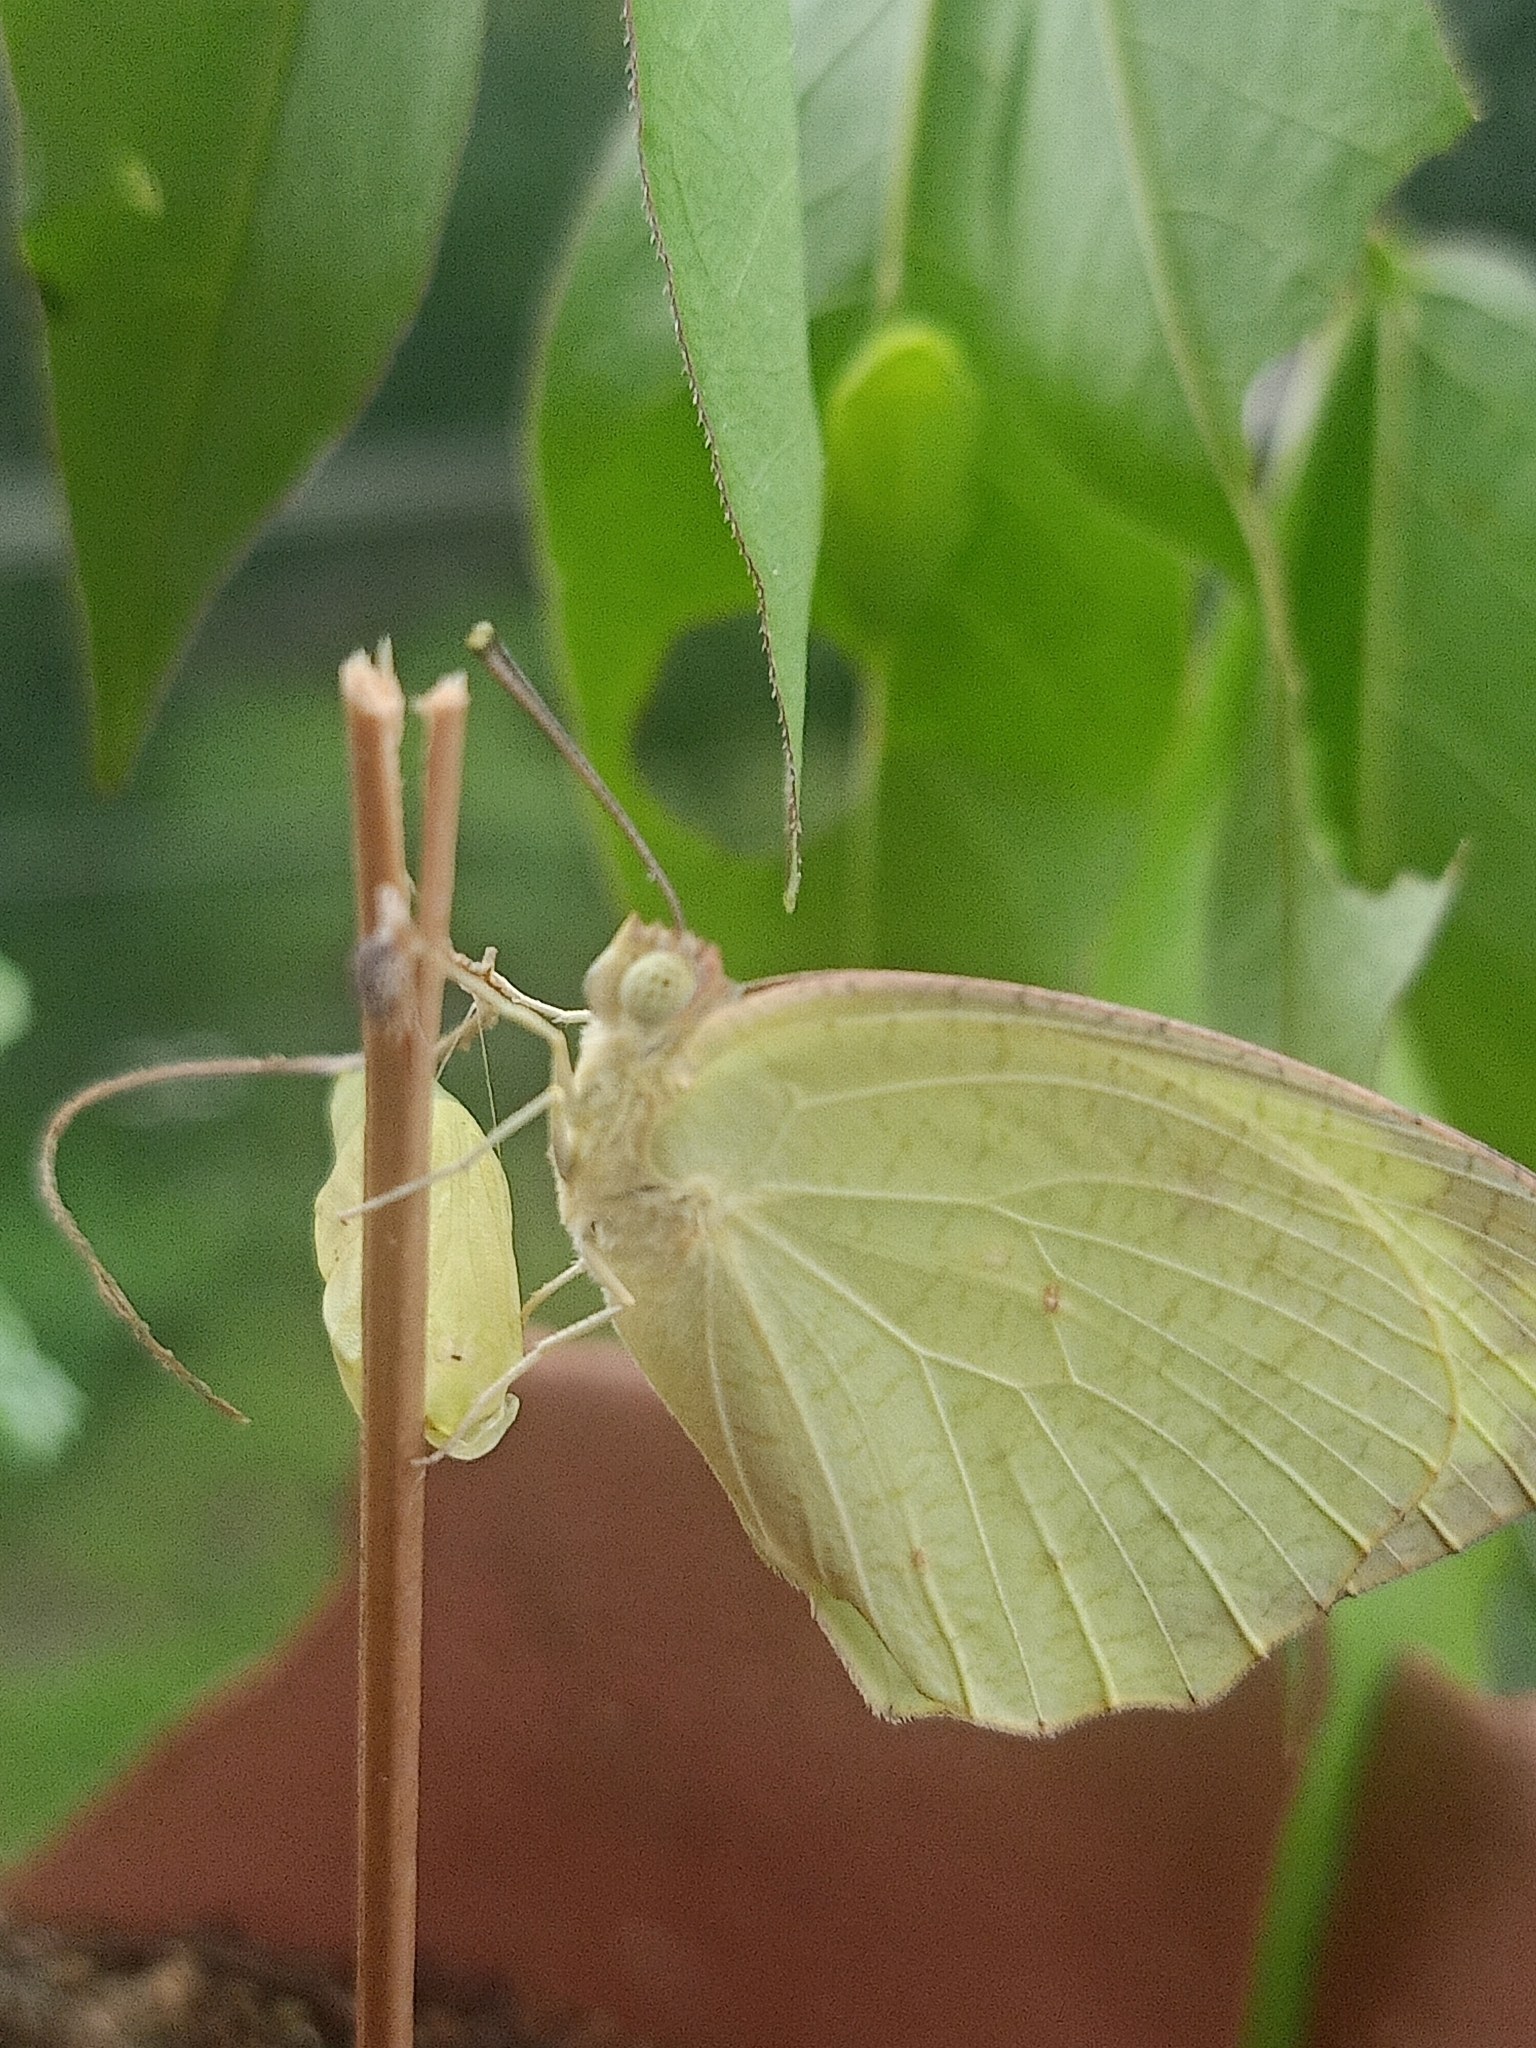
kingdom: Animalia
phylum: Arthropoda
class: Insecta
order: Lepidoptera
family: Pieridae
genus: Catopsilia
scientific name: Catopsilia pyranthe
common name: Mottled emigrant
